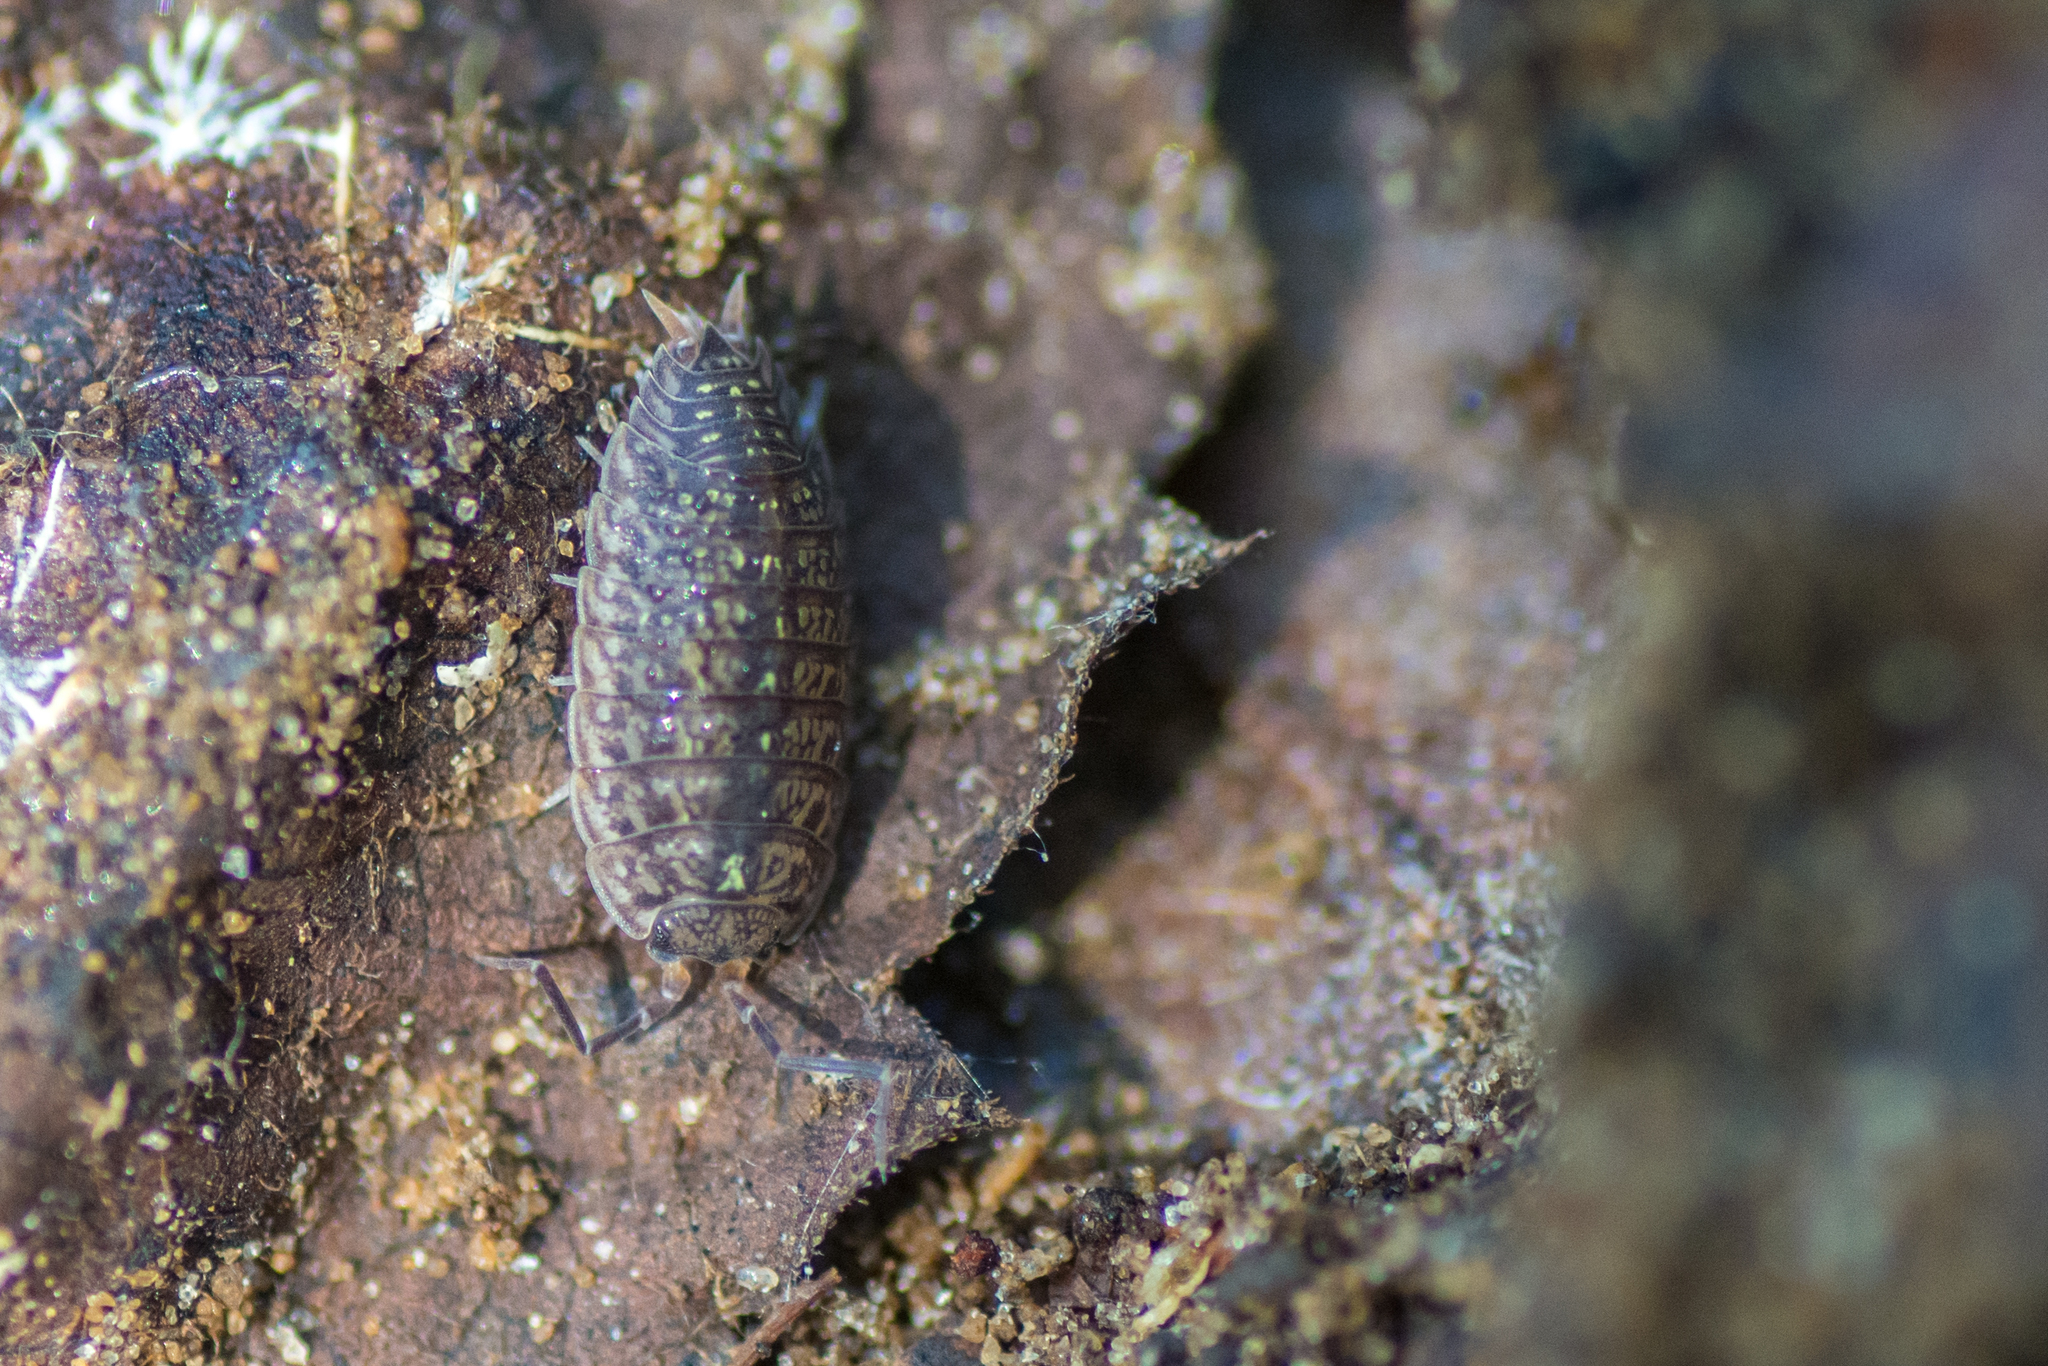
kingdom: Animalia
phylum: Arthropoda
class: Malacostraca
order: Isopoda
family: Porcellionidae
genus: Porcellionides
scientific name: Porcellionides virgatus
